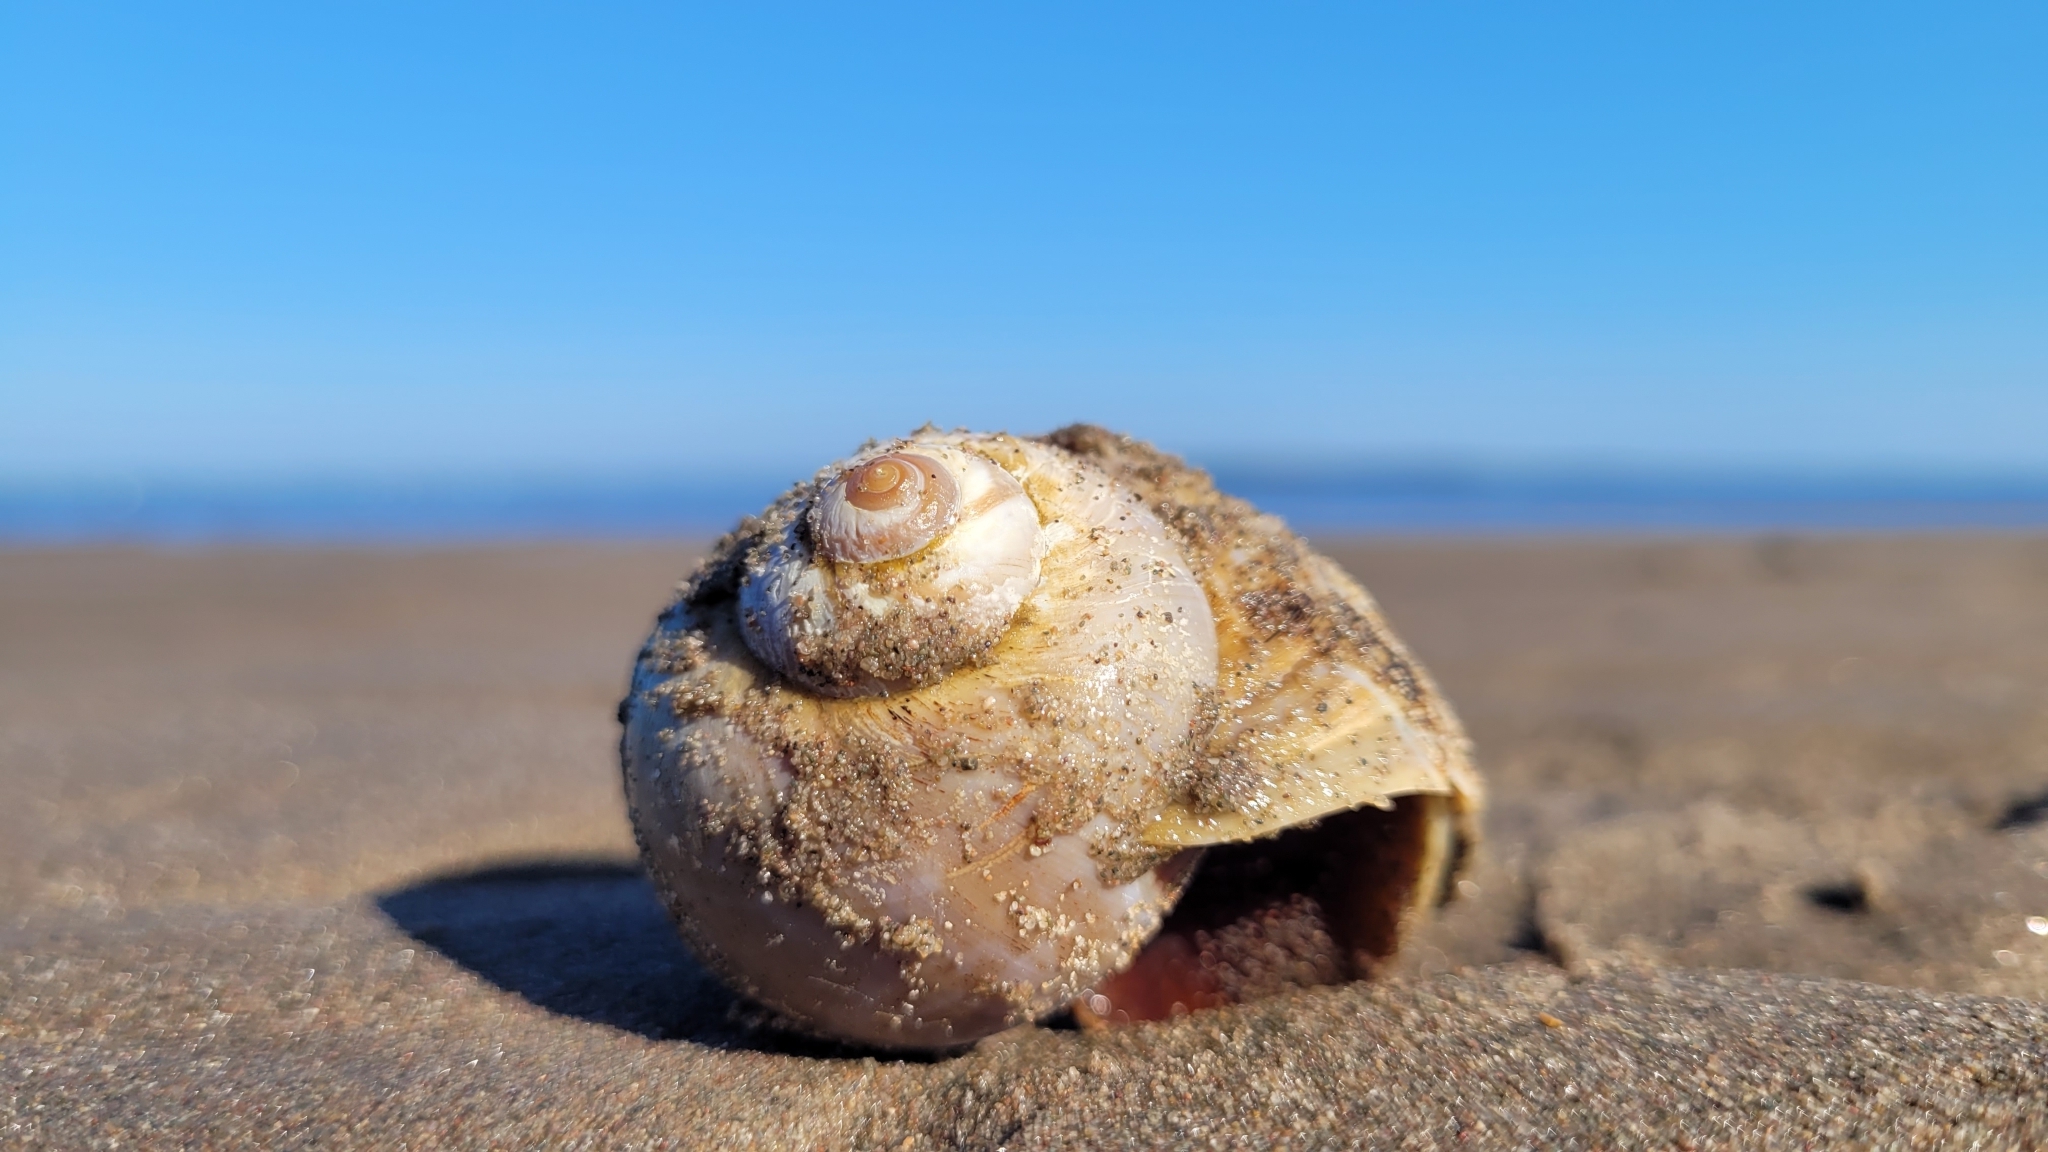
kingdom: Animalia
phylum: Mollusca
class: Gastropoda
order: Littorinimorpha
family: Naticidae
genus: Euspira
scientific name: Euspira heros
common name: Common northern moonsnail
